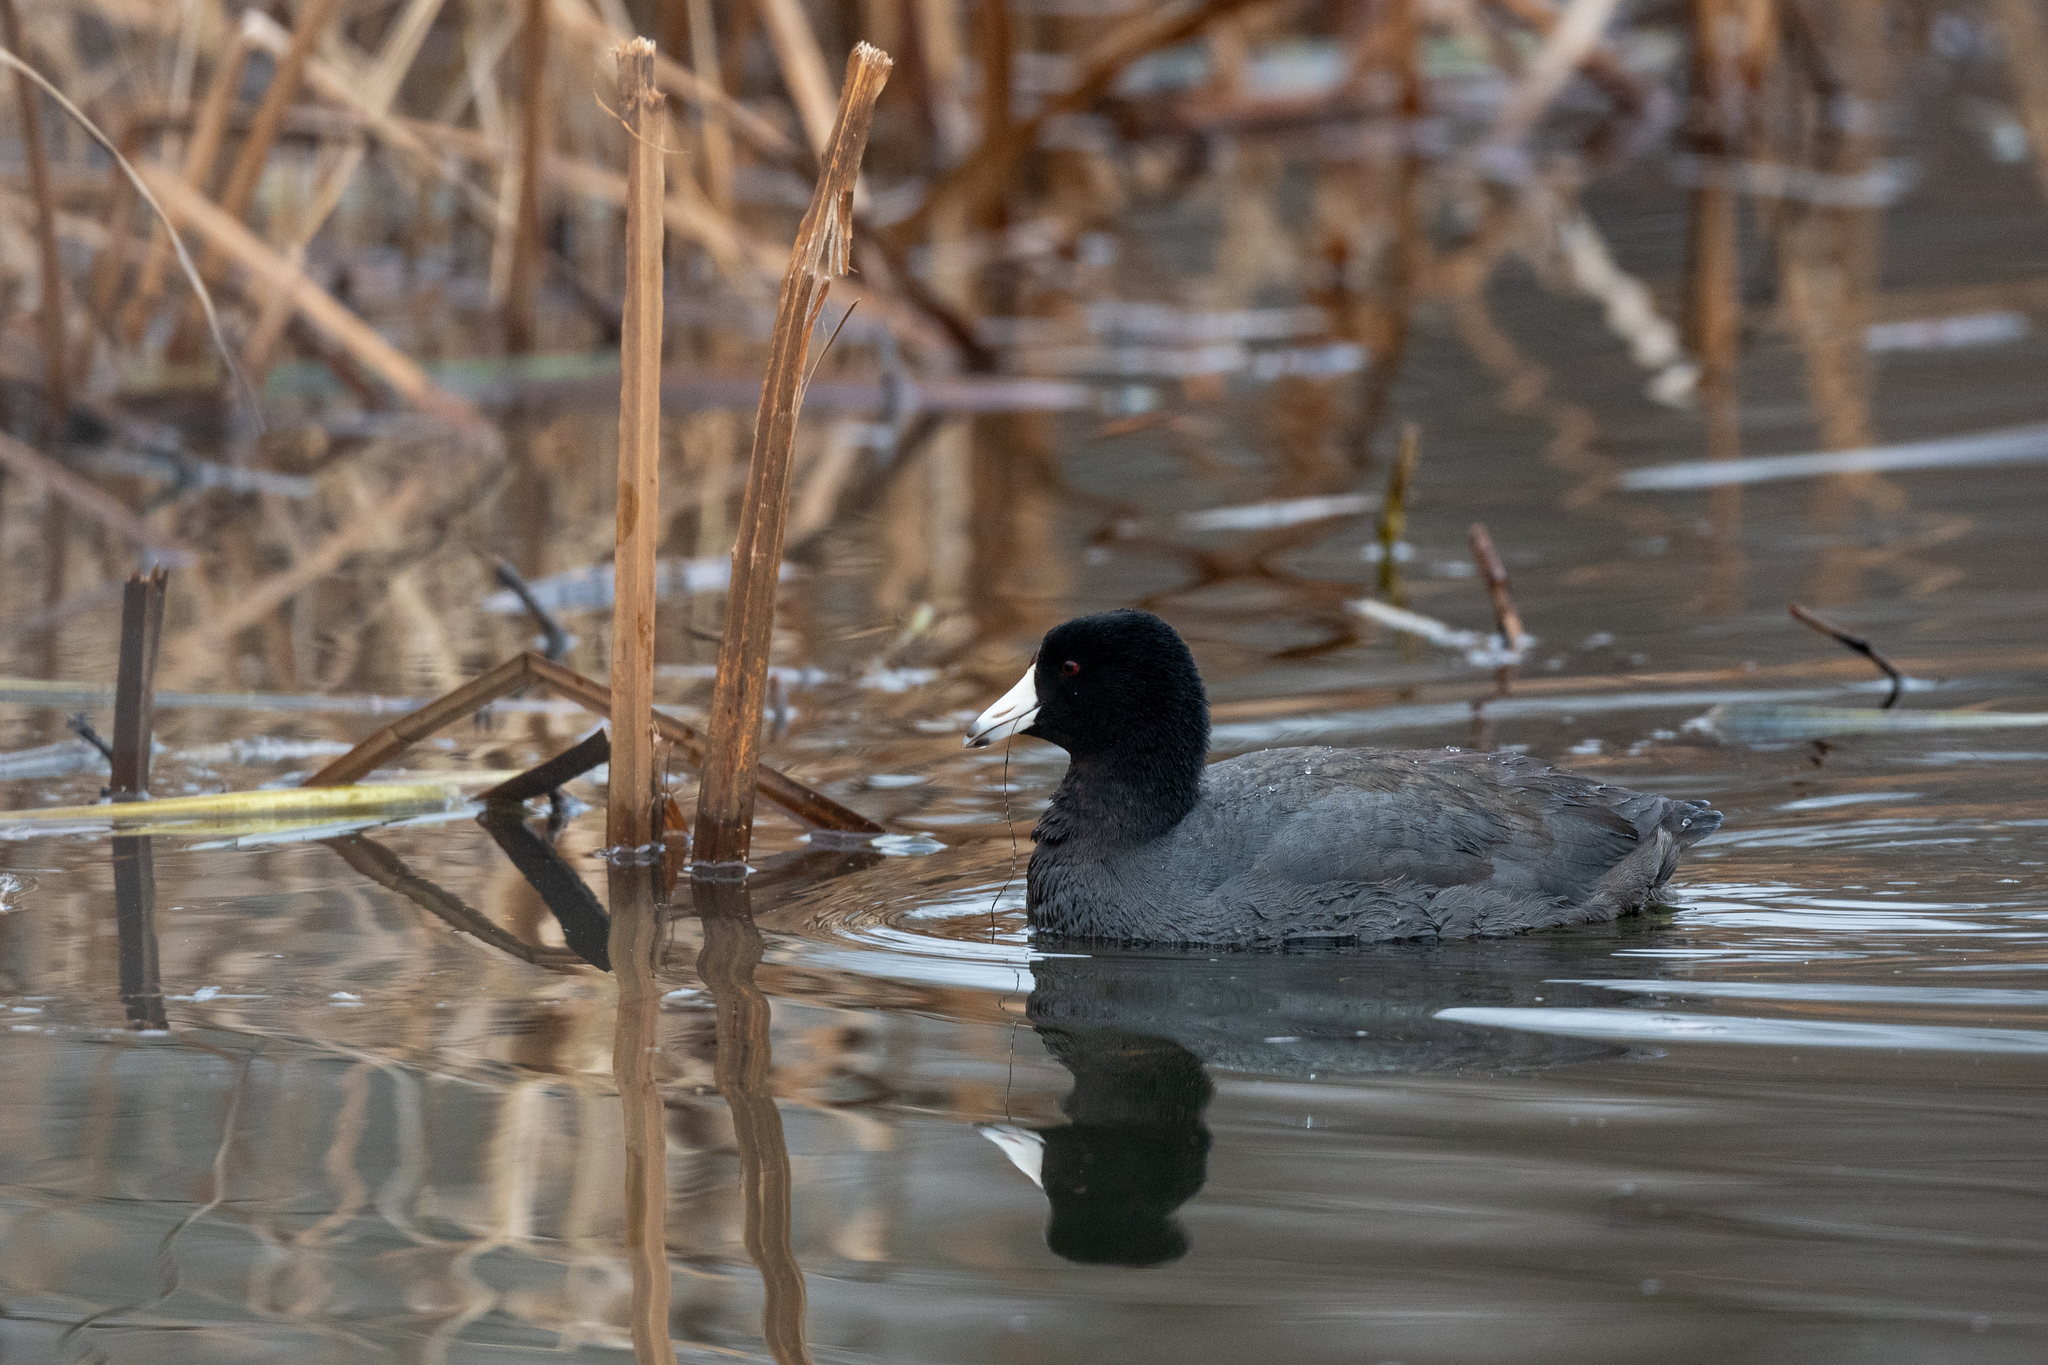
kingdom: Animalia
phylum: Chordata
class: Aves
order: Gruiformes
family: Rallidae
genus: Fulica
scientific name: Fulica americana
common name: American coot
